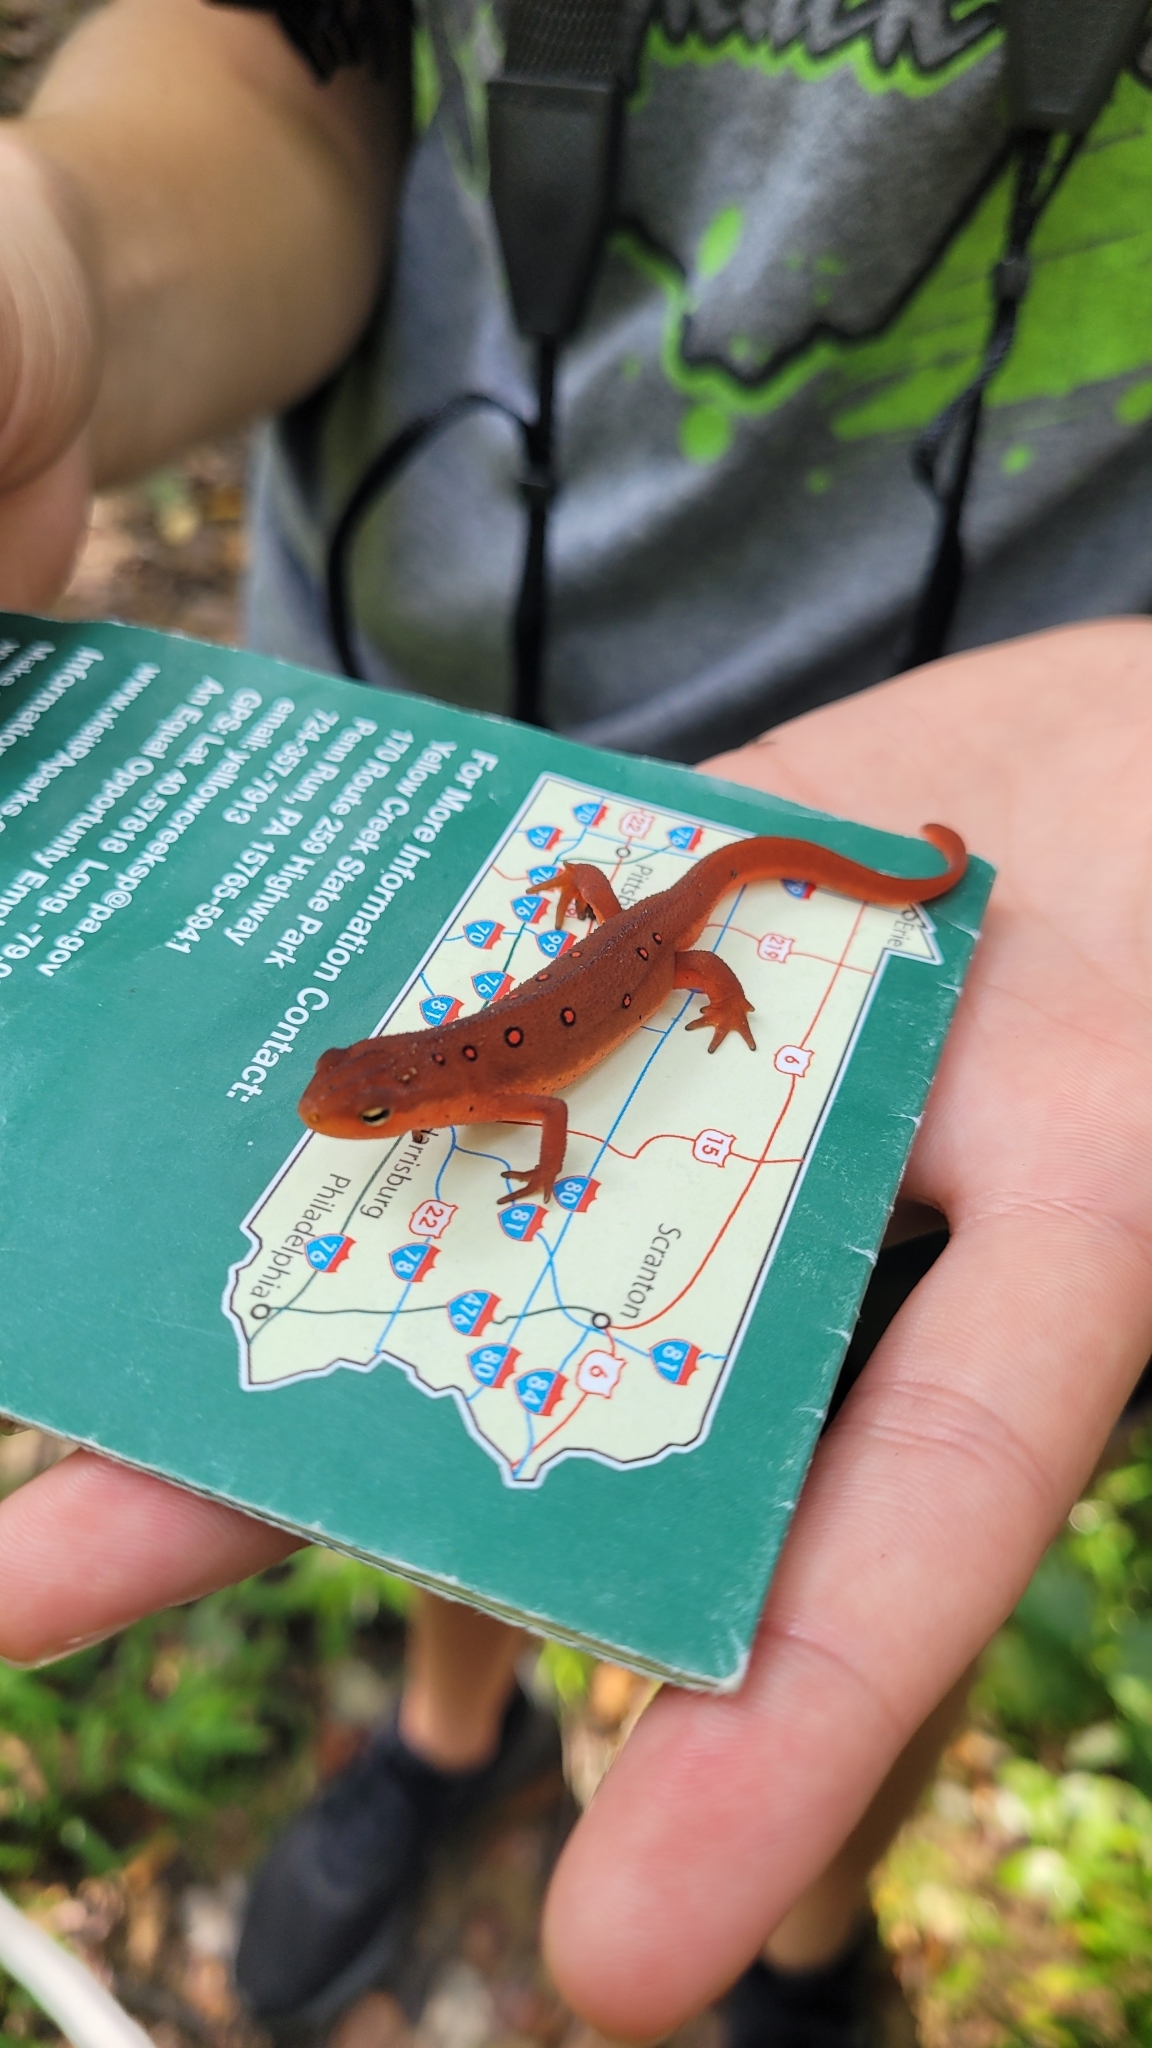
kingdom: Animalia
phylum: Chordata
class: Amphibia
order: Caudata
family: Salamandridae
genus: Notophthalmus
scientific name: Notophthalmus viridescens
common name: Eastern newt
